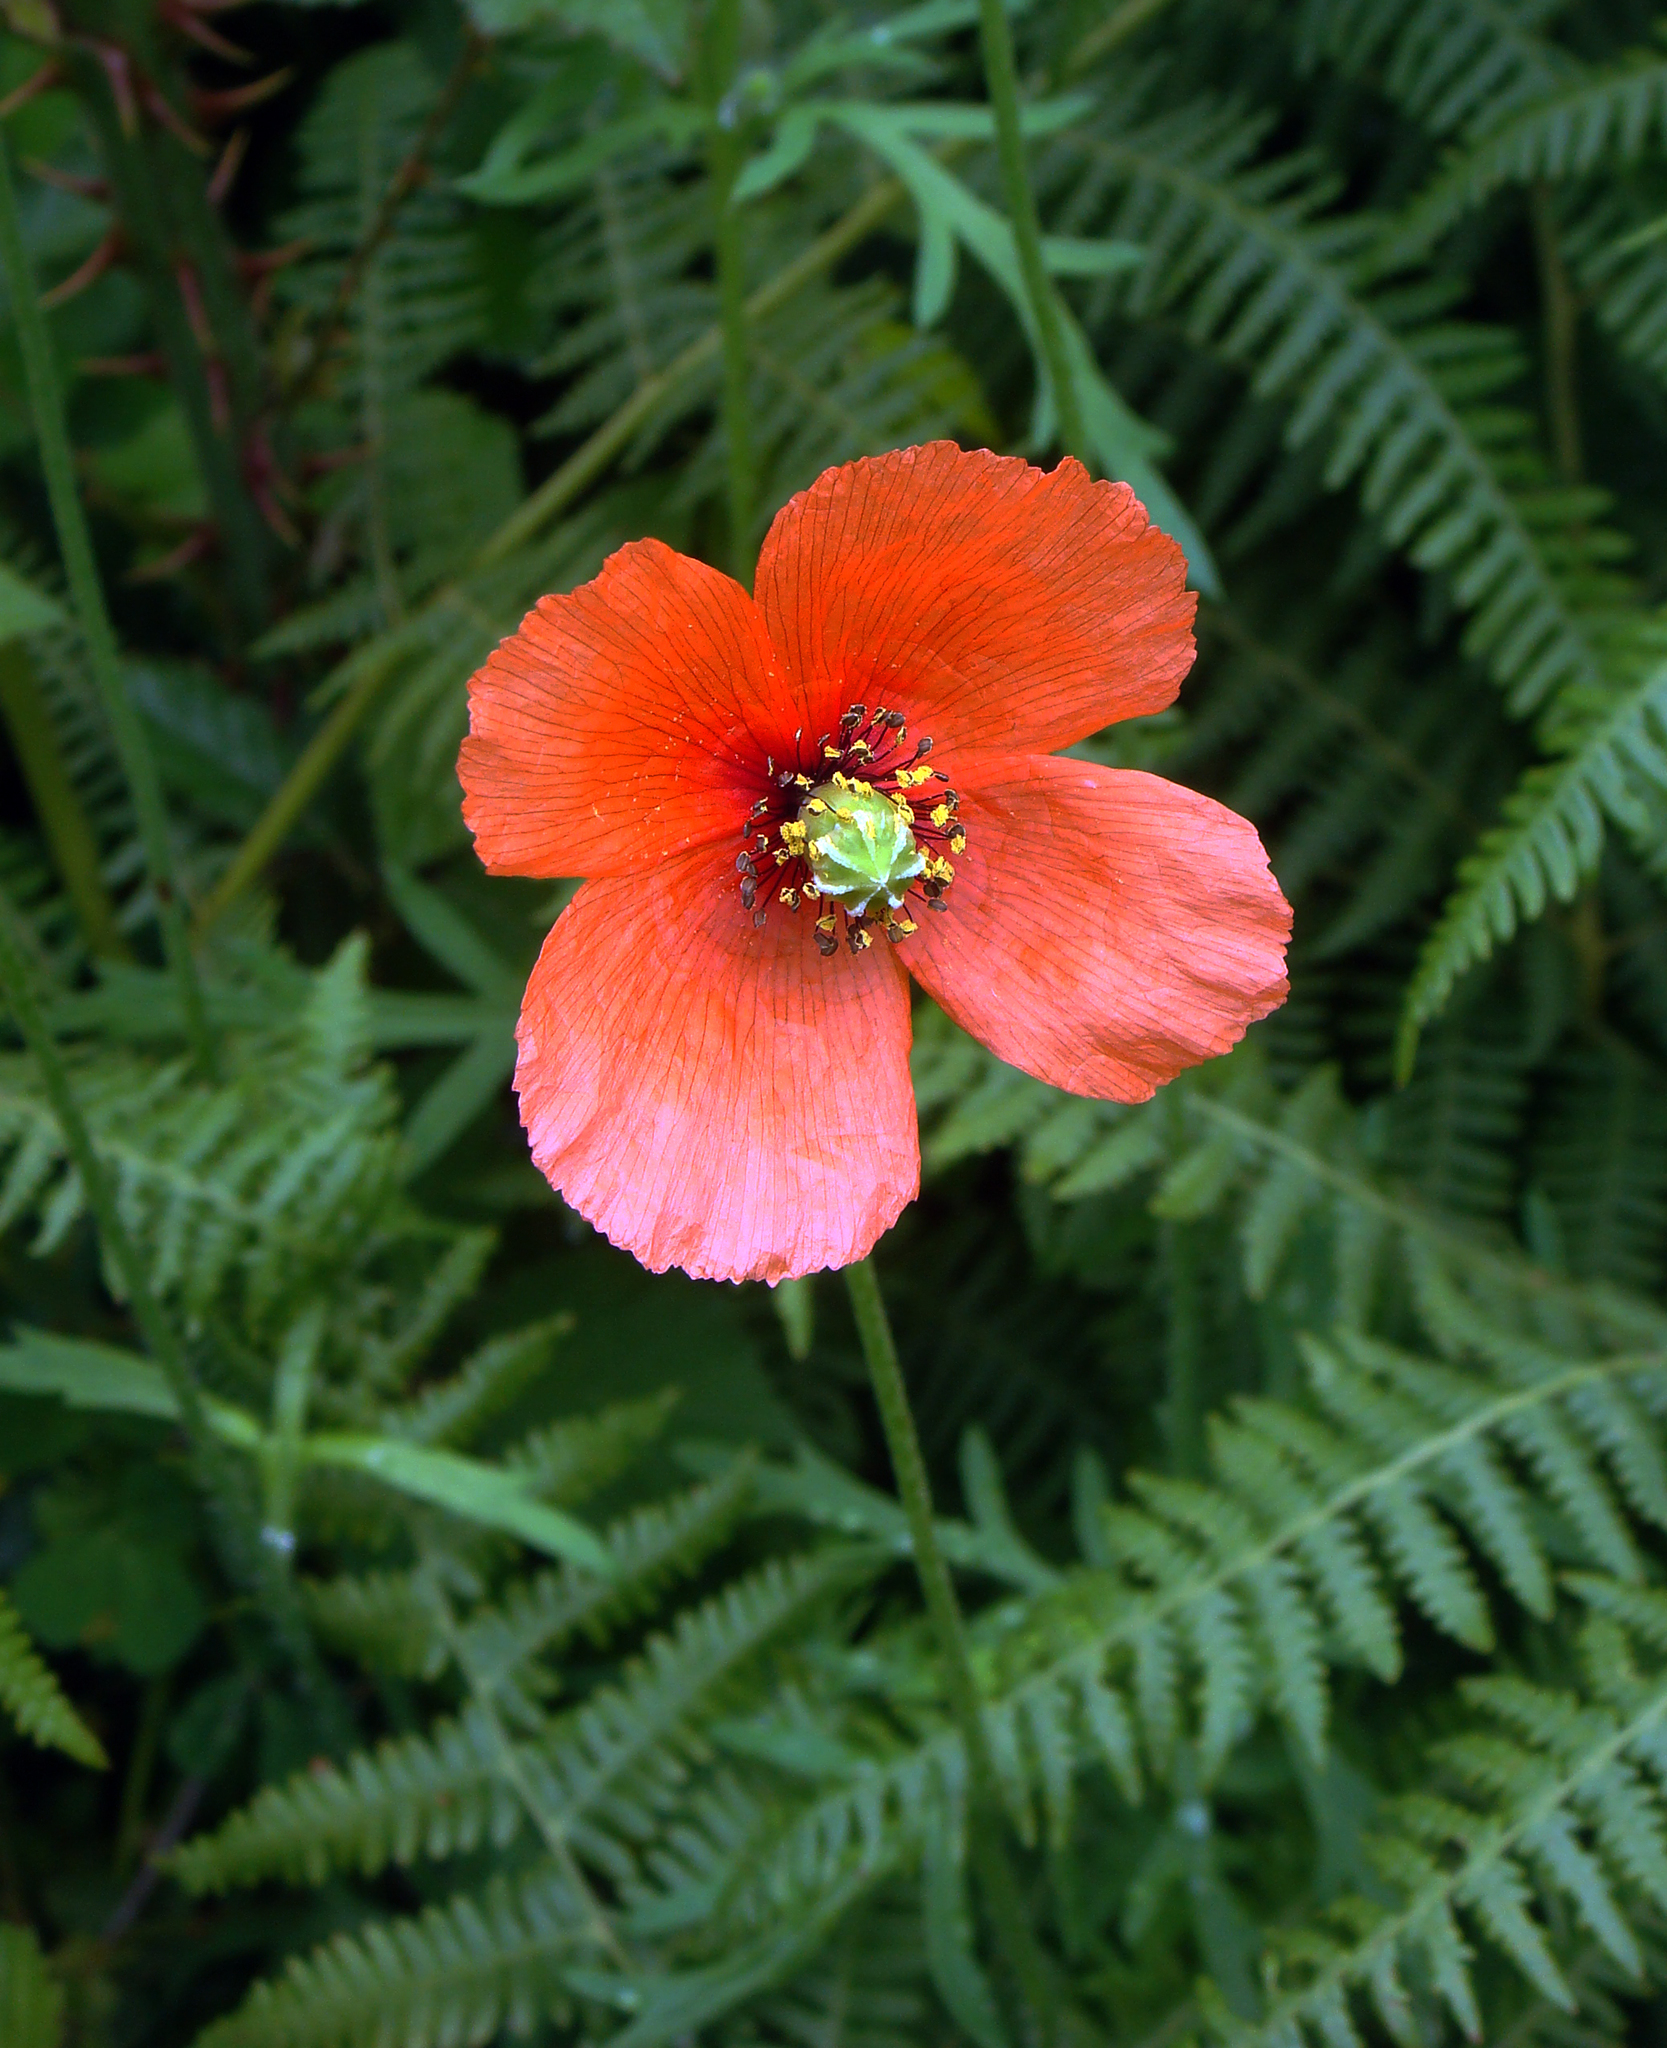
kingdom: Plantae
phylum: Tracheophyta
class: Magnoliopsida
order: Ranunculales
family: Papaveraceae
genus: Papaver
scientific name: Papaver dubium
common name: Long-headed poppy
